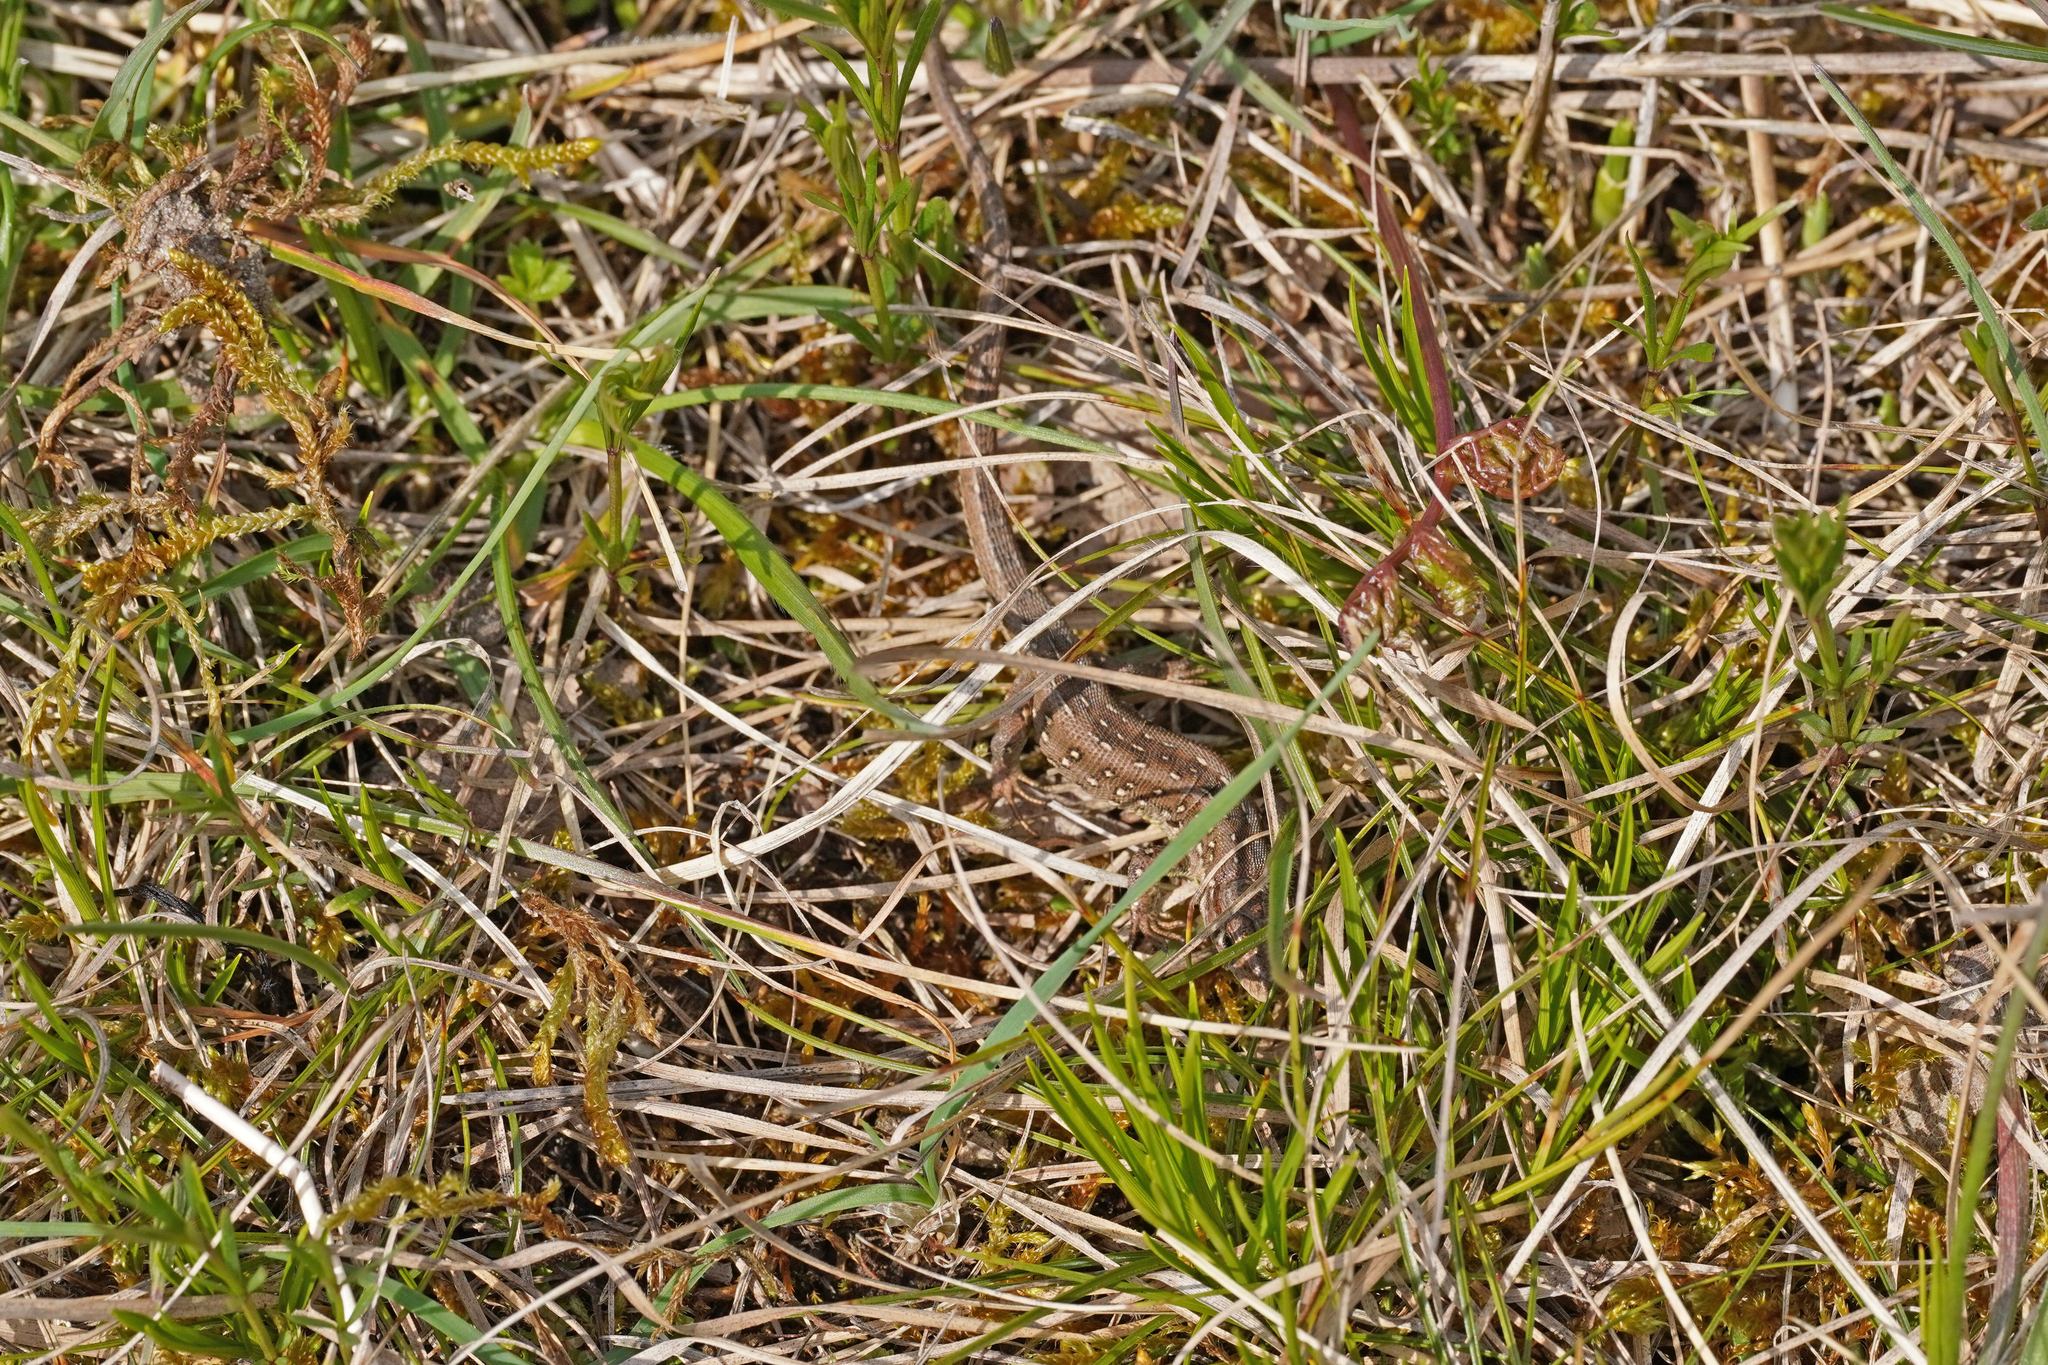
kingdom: Animalia
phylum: Chordata
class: Squamata
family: Lacertidae
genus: Lacerta
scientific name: Lacerta agilis
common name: Sand lizard
